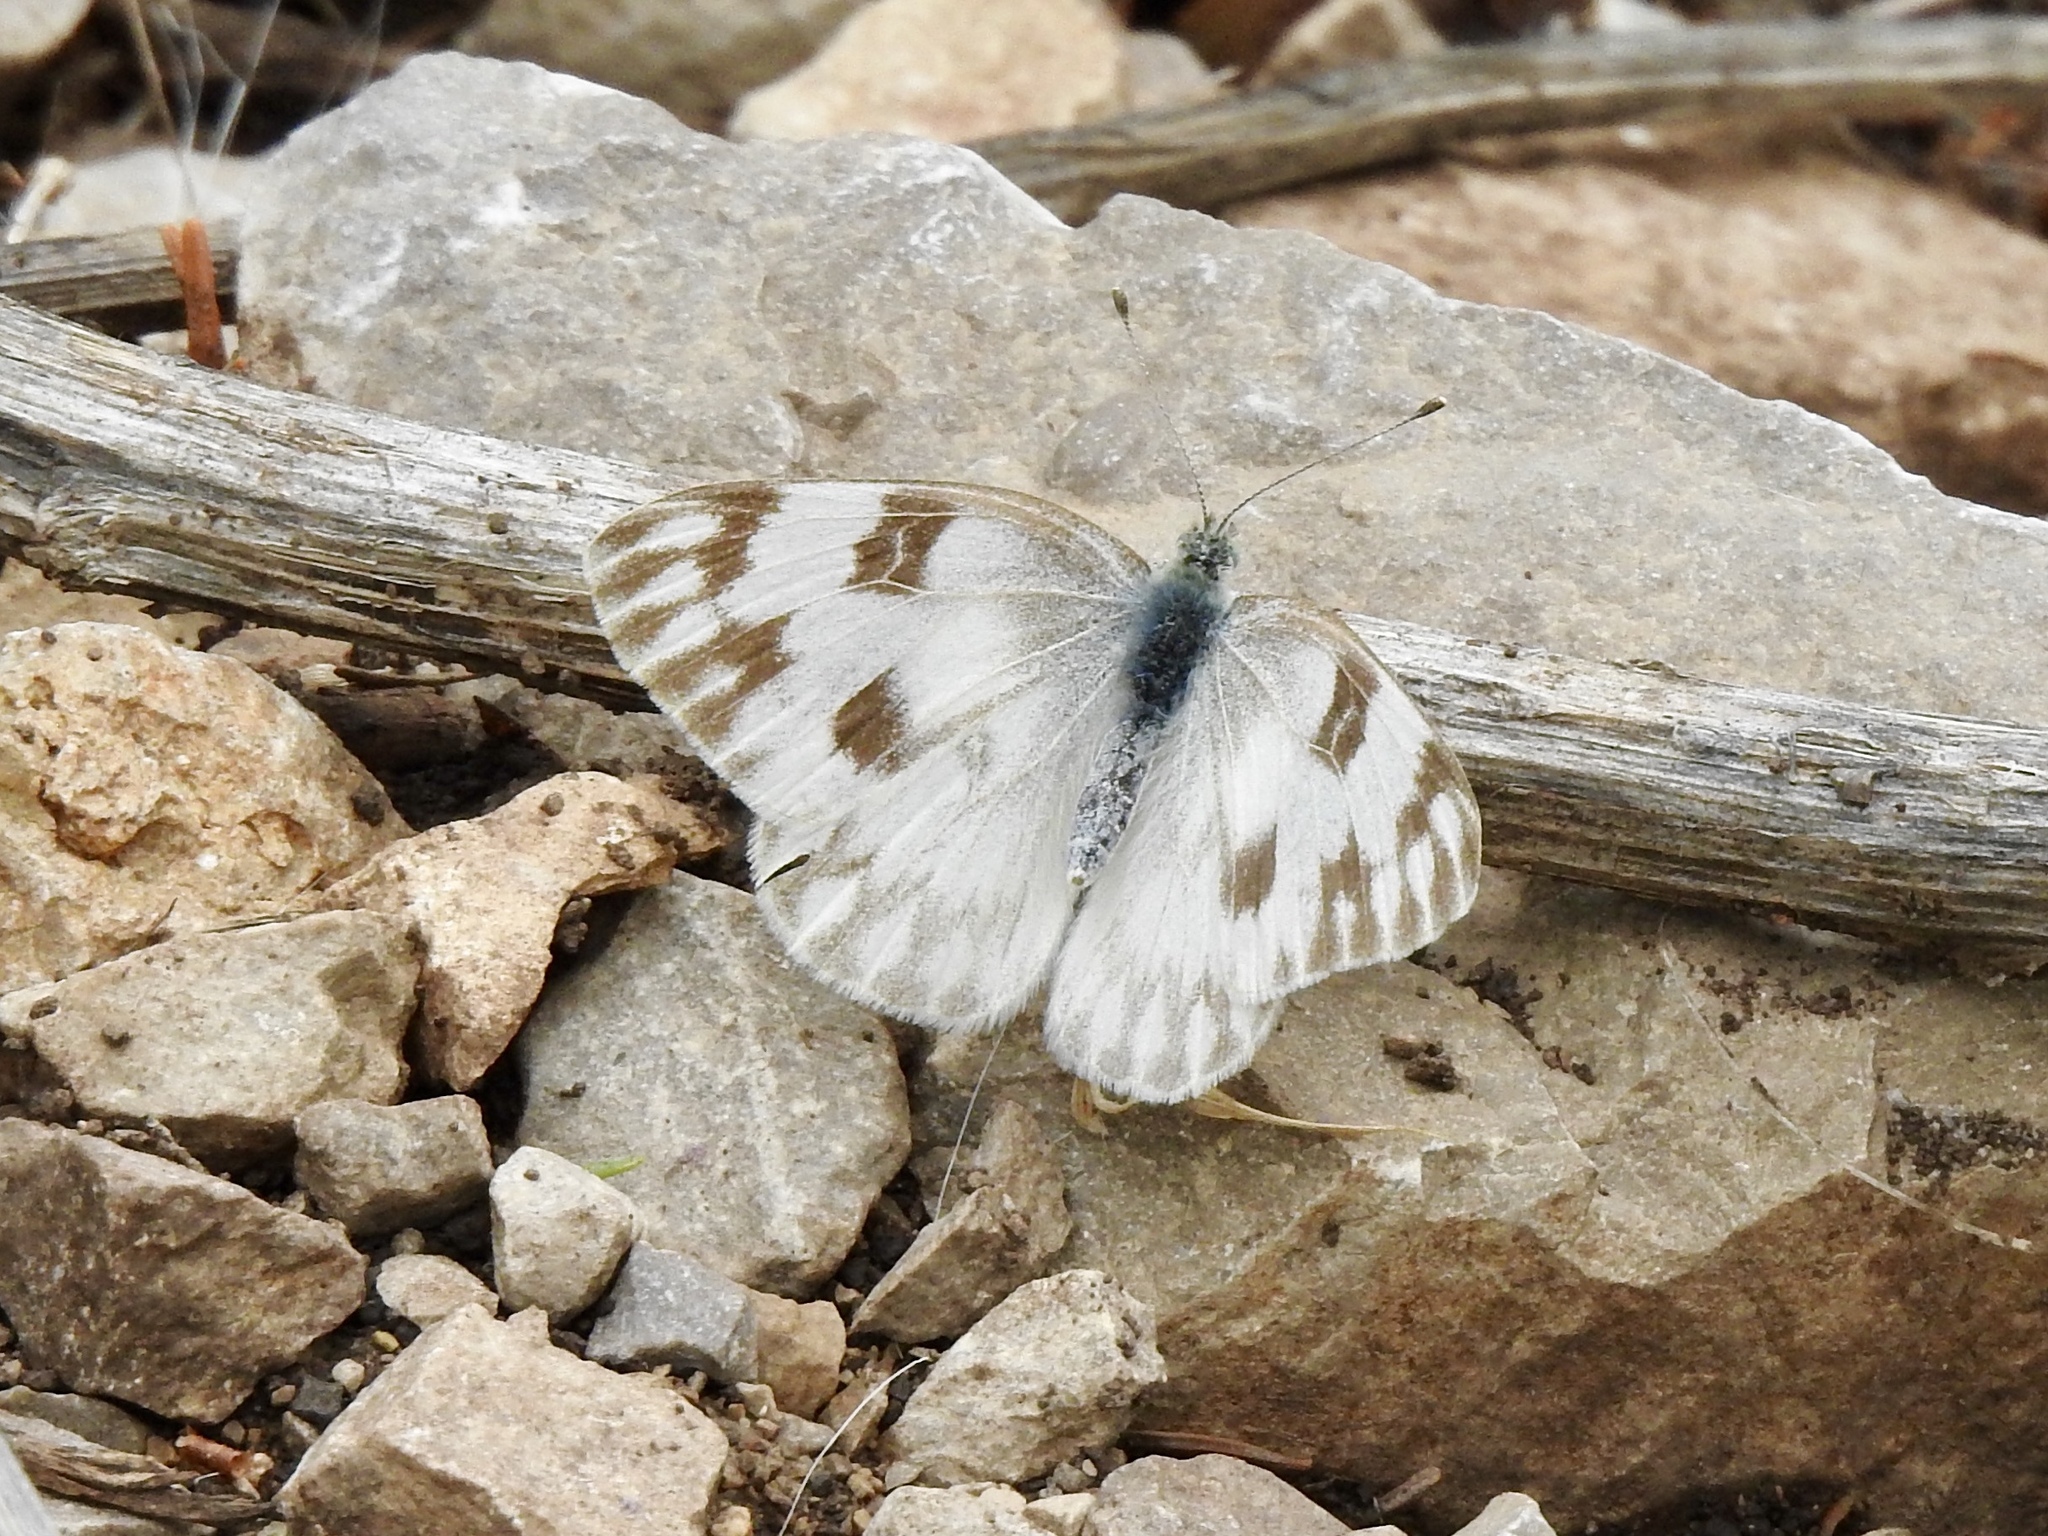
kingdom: Animalia
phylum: Arthropoda
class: Insecta
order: Lepidoptera
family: Pieridae
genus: Pontia
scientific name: Pontia protodice
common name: Checkered white
